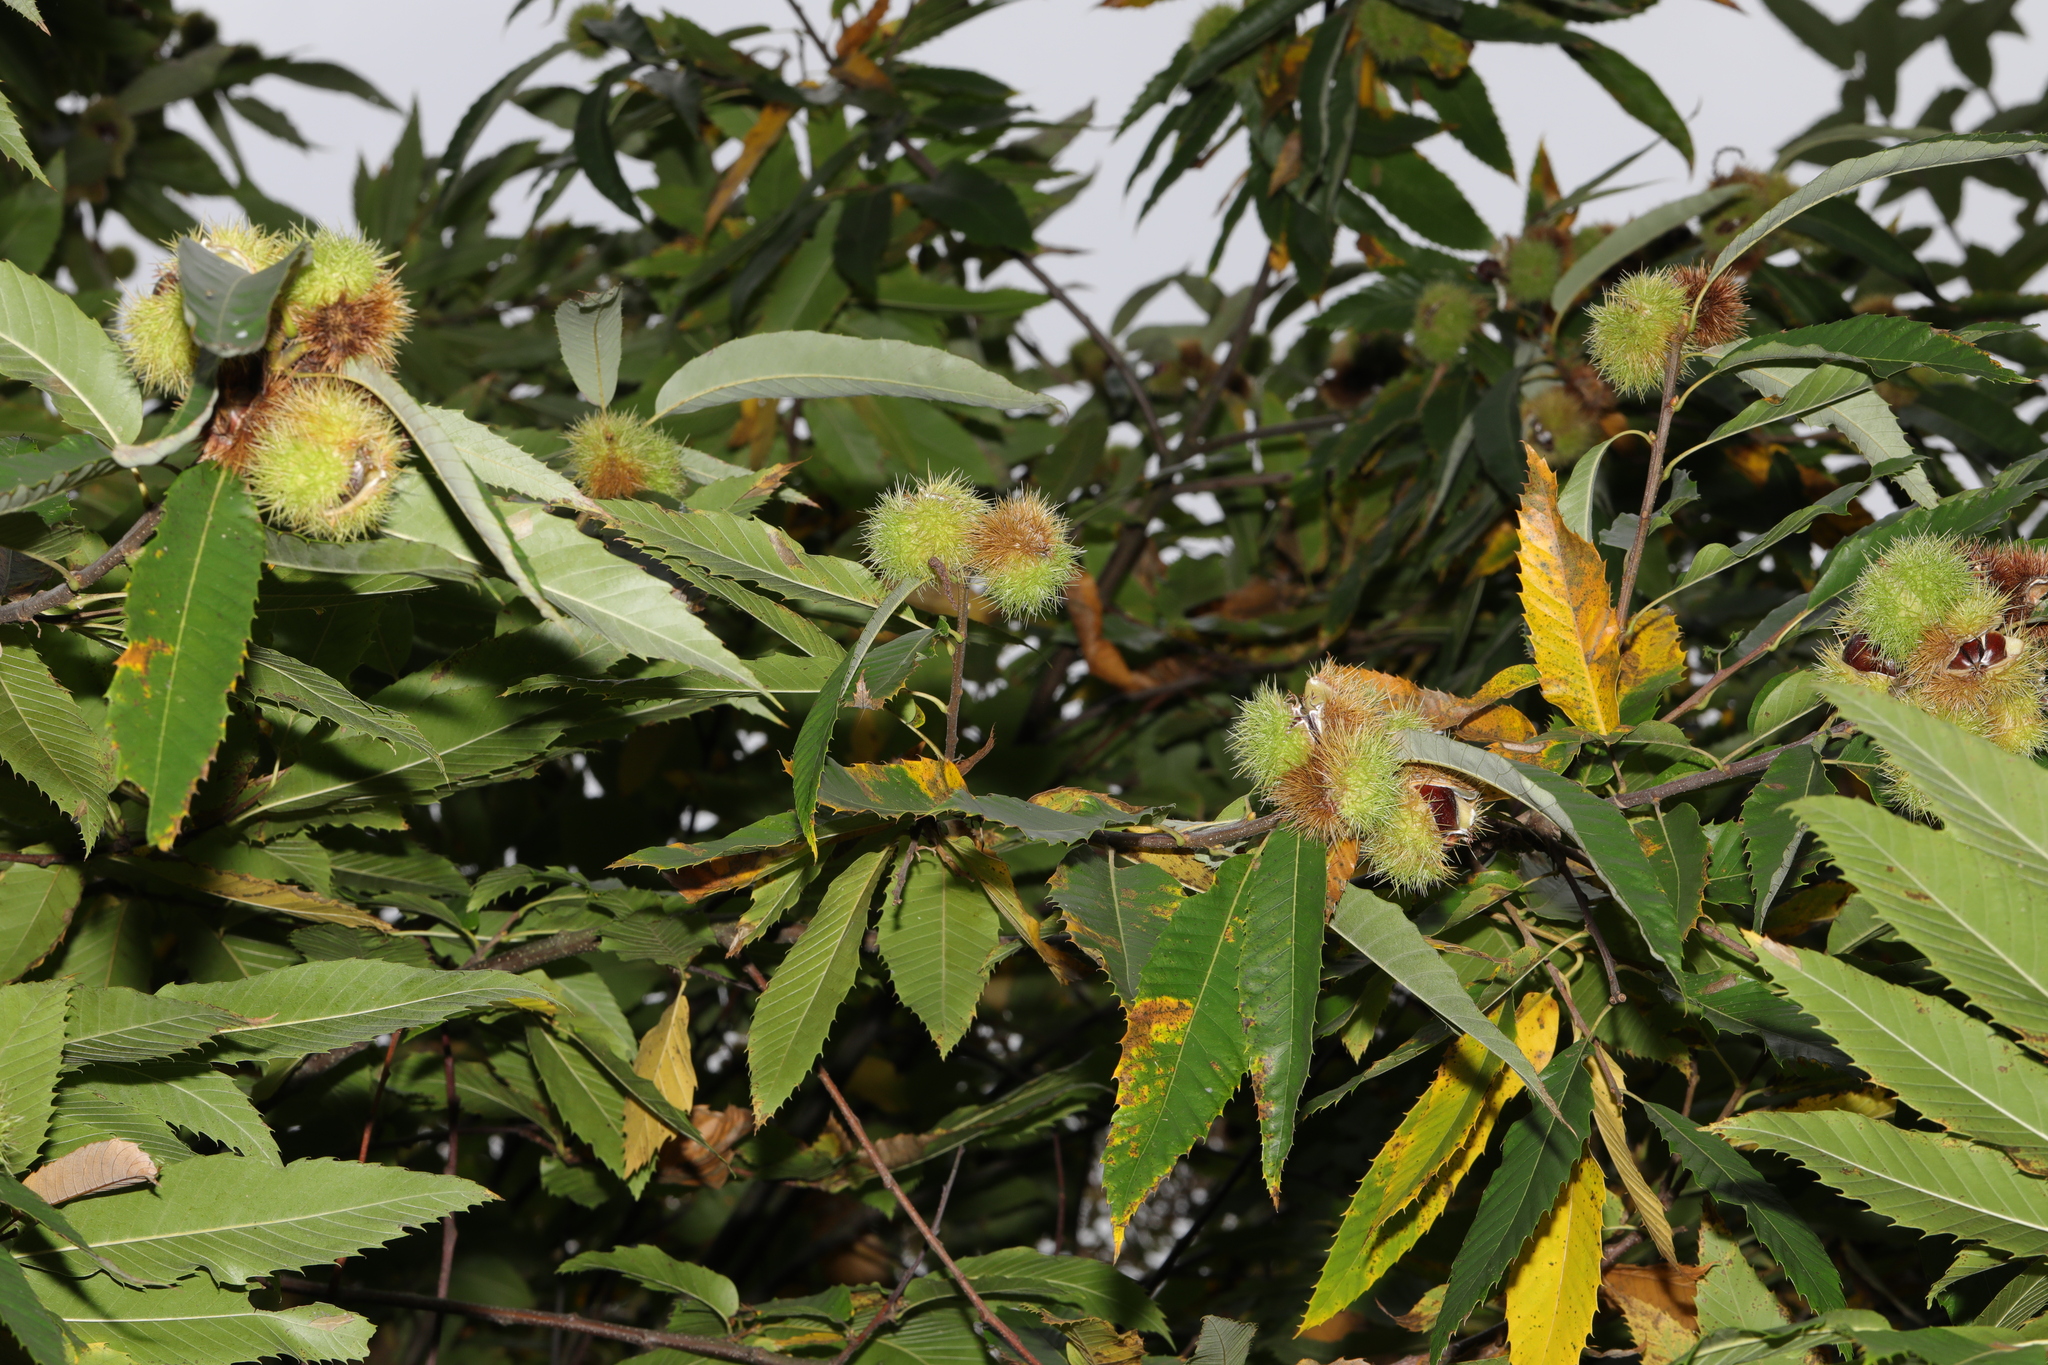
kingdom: Plantae
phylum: Tracheophyta
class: Magnoliopsida
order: Fagales
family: Fagaceae
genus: Castanea
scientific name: Castanea sativa
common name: Sweet chestnut
